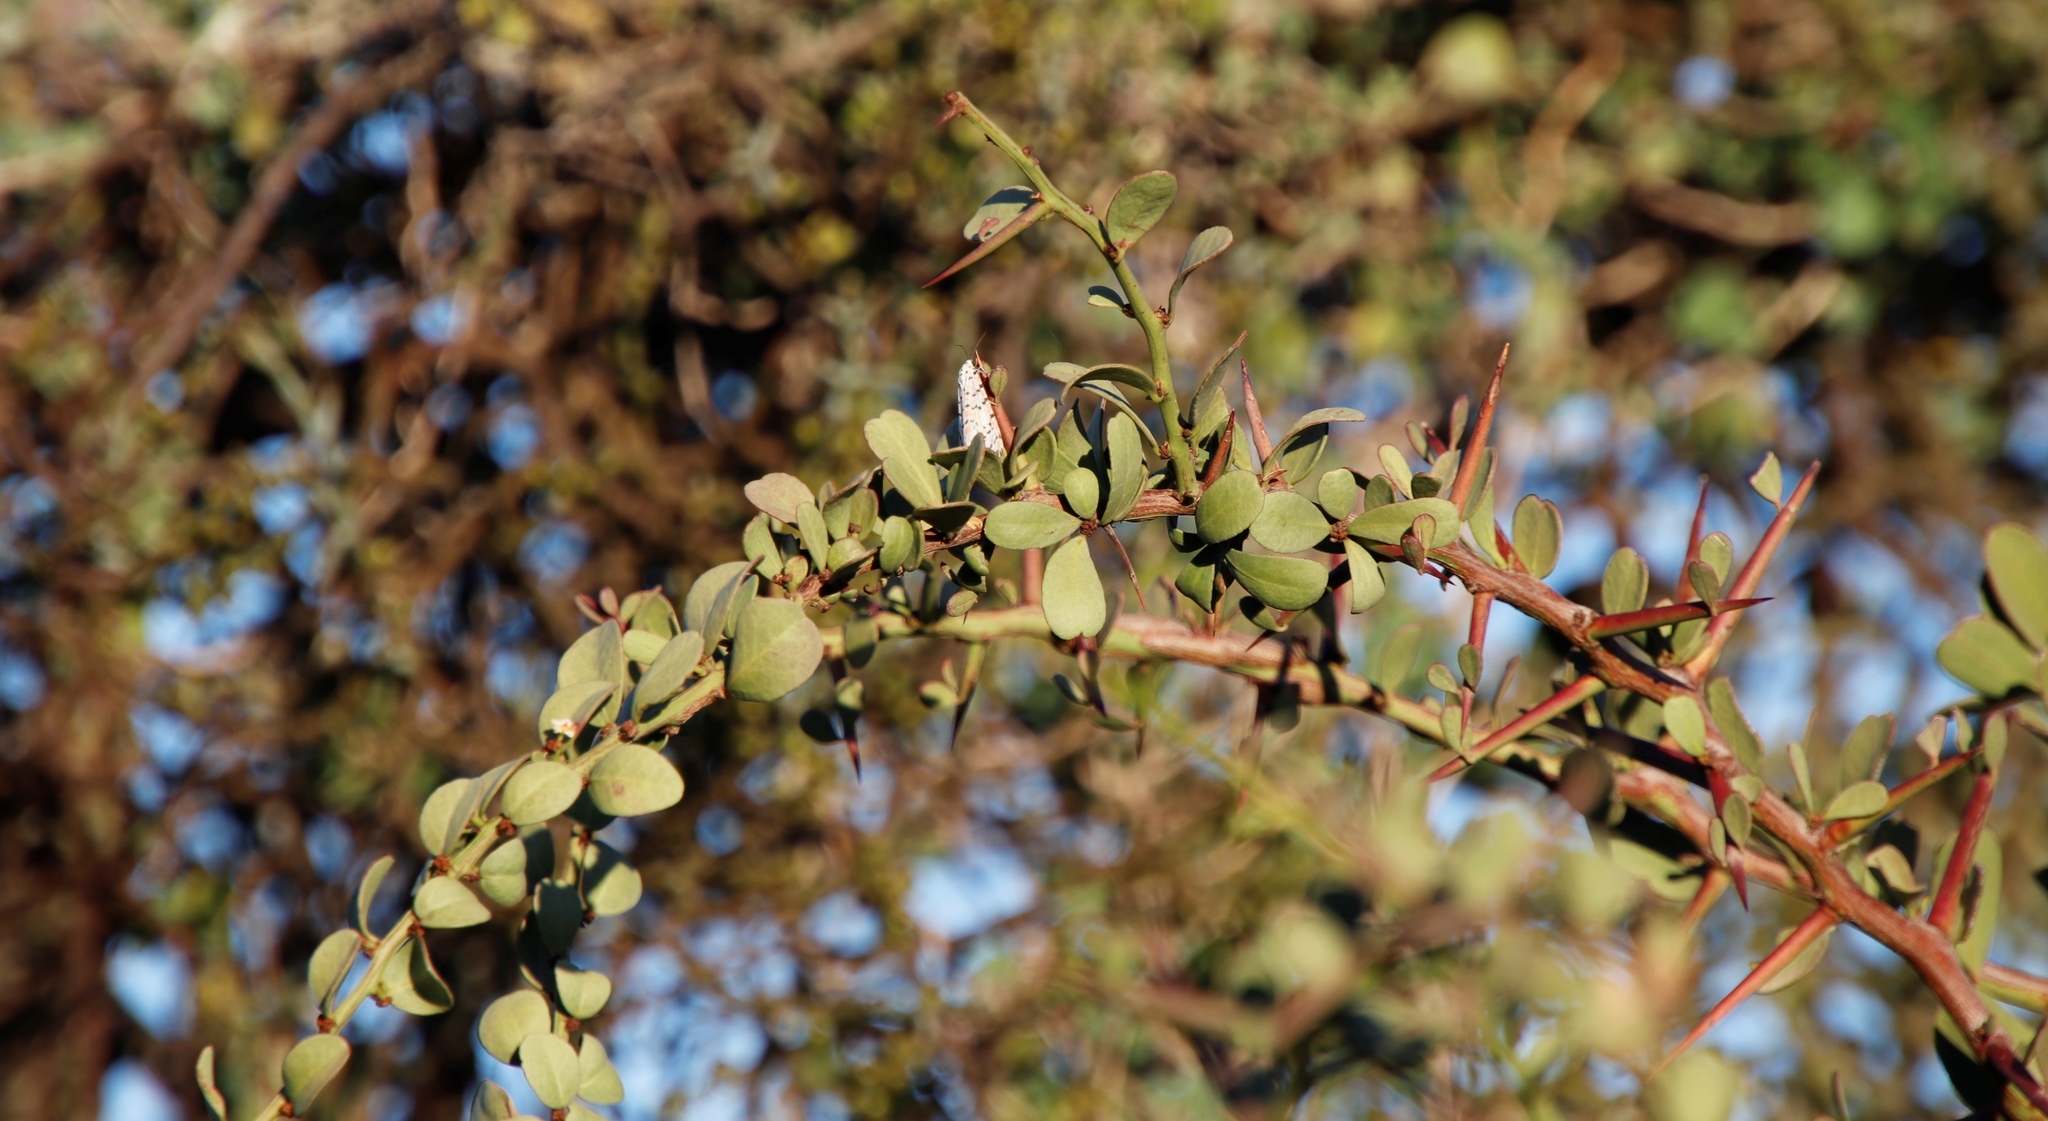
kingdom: Animalia
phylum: Arthropoda
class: Insecta
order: Lepidoptera
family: Erebidae
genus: Utetheisa
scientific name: Utetheisa pulchella
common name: Crimson speckled
